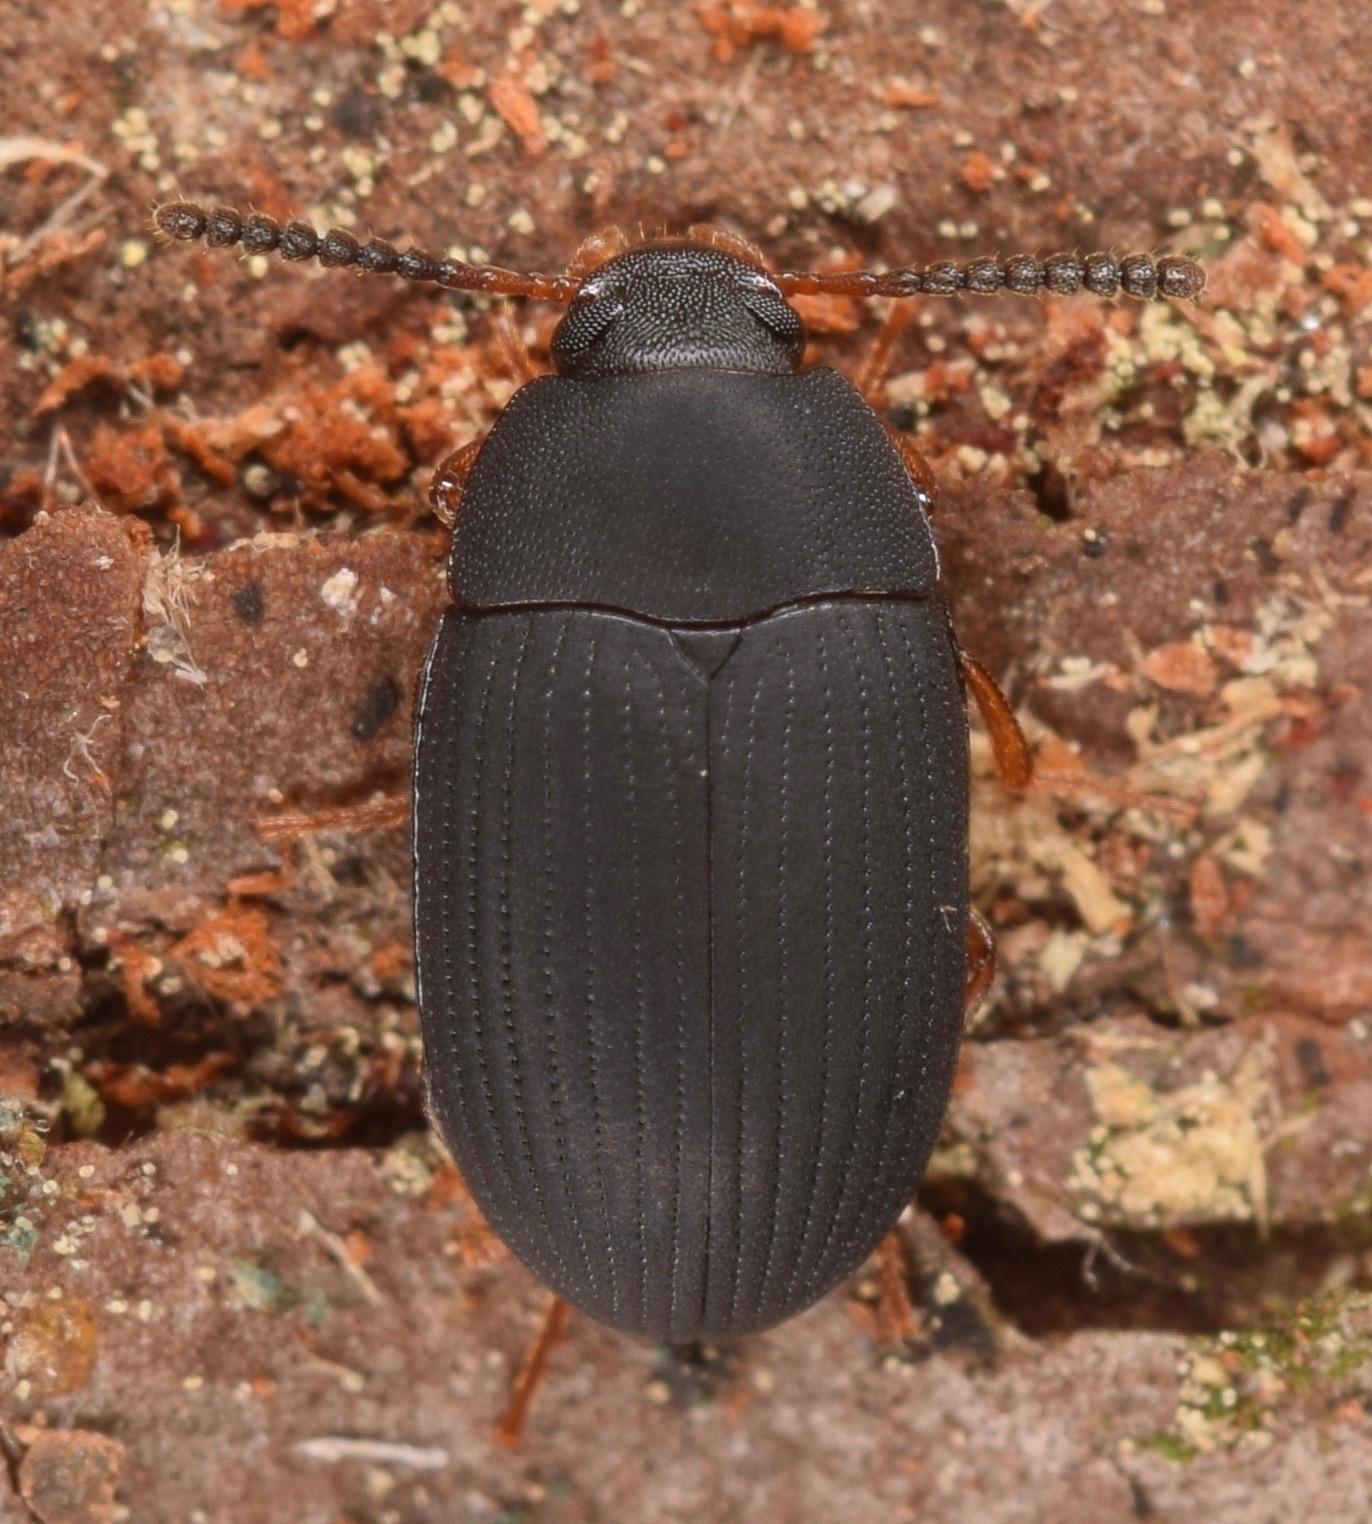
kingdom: Animalia
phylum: Arthropoda
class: Insecta
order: Coleoptera
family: Tenebrionidae
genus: Platydema
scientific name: Platydema flavipes
